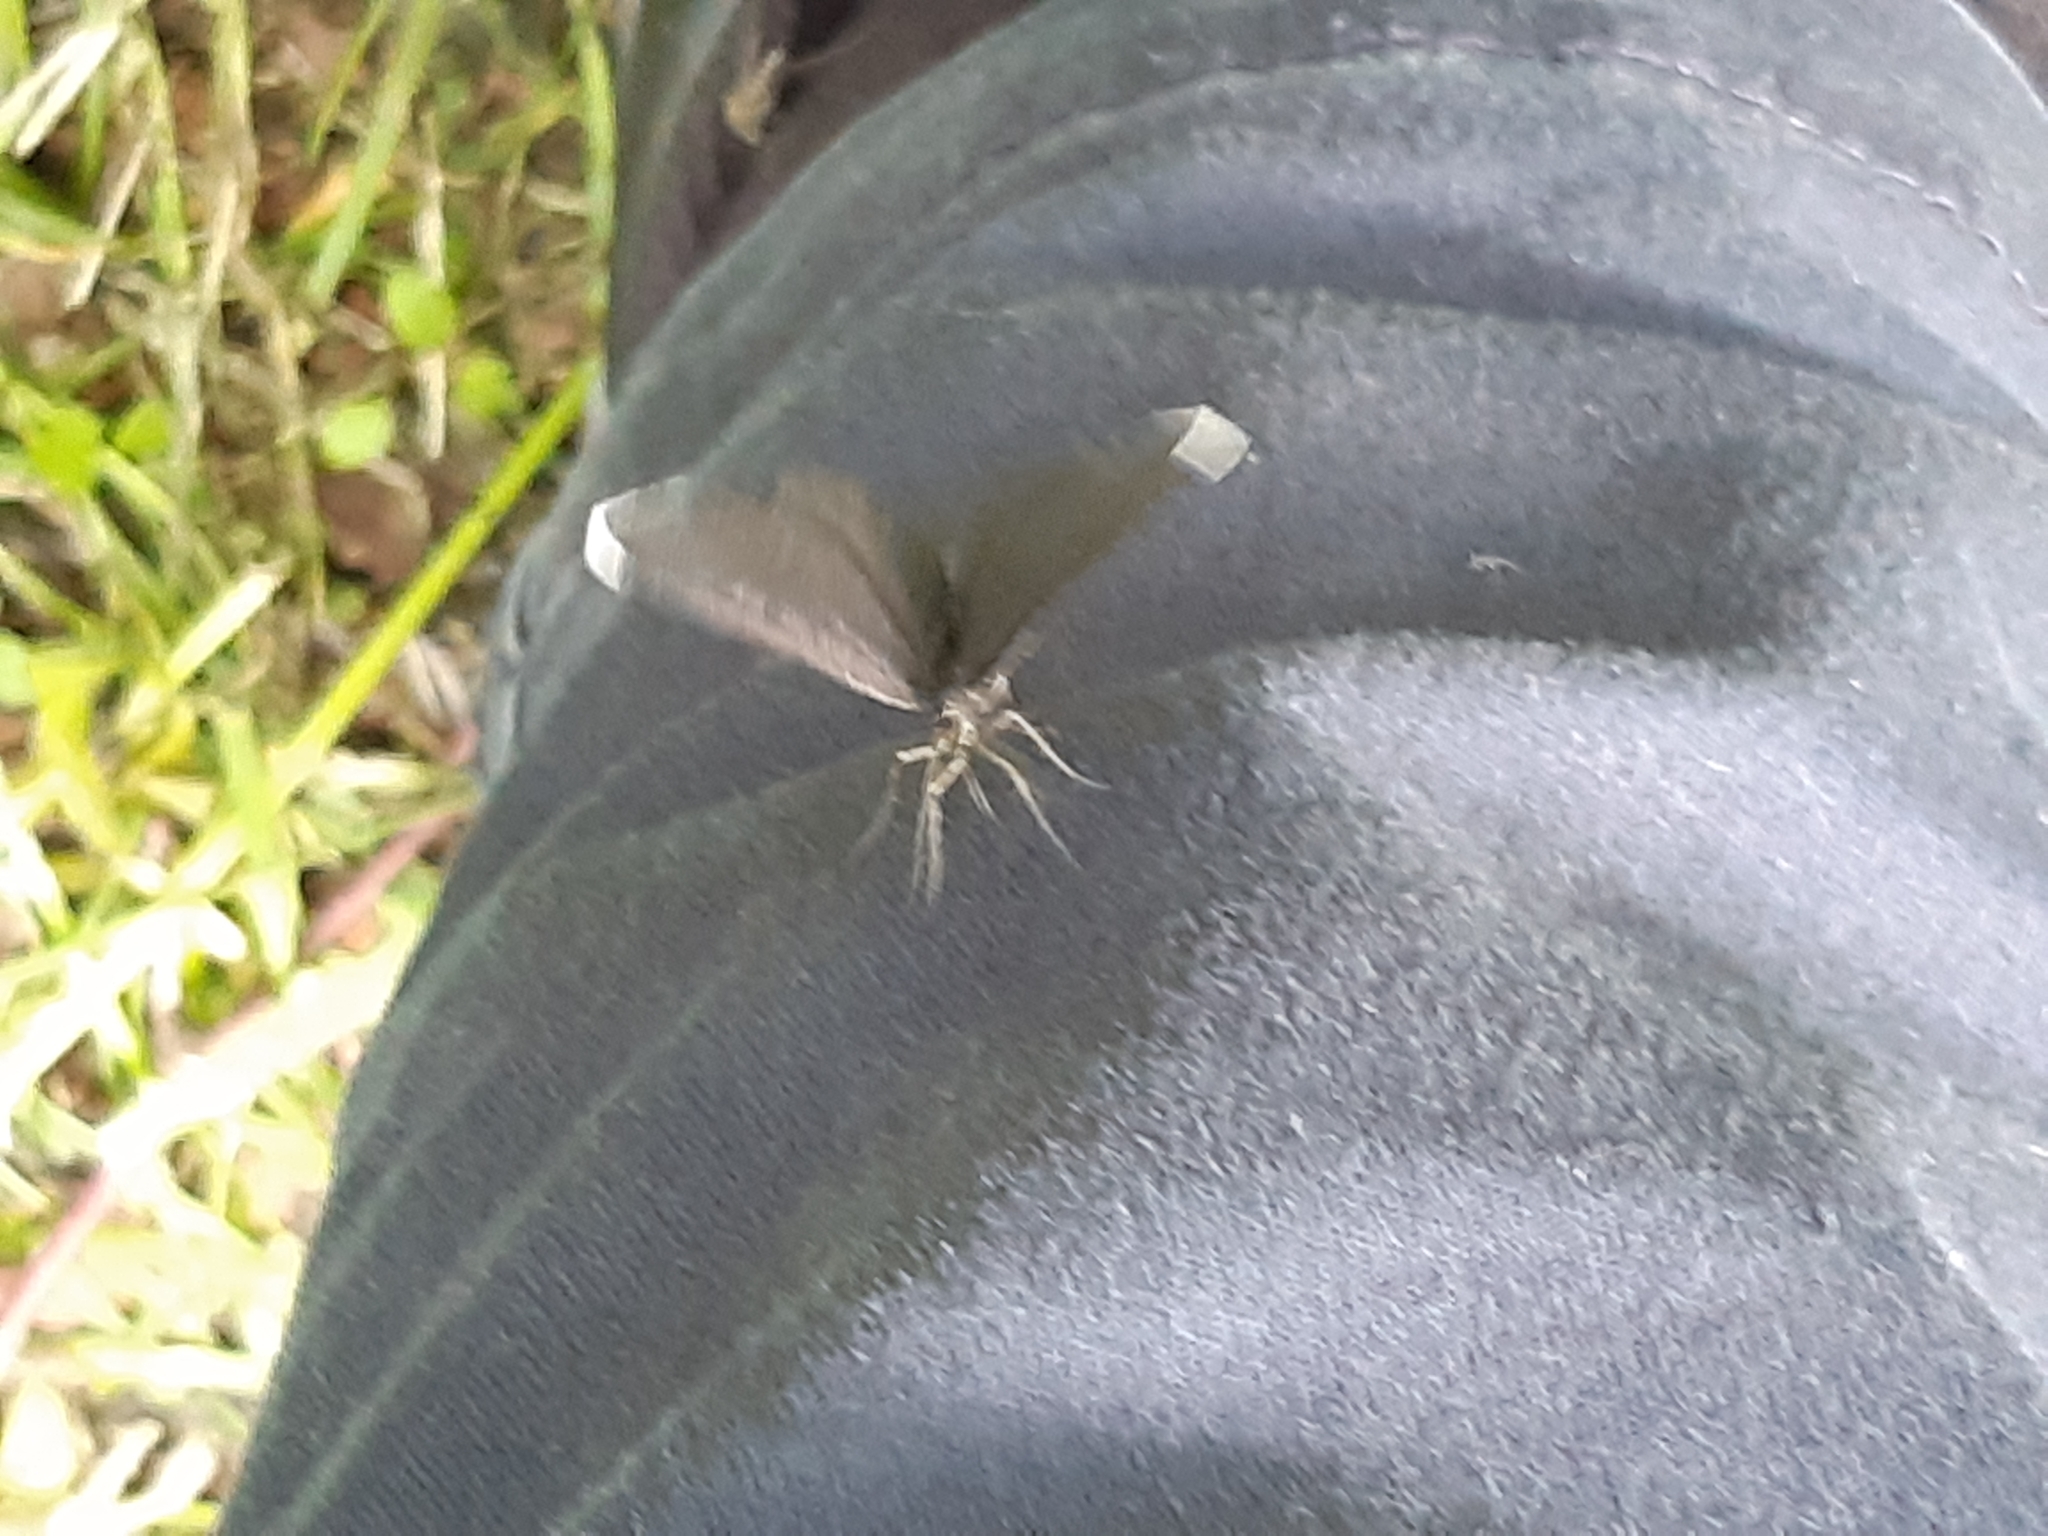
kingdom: Animalia
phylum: Arthropoda
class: Insecta
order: Lepidoptera
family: Geometridae
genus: Odezia
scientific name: Odezia atrata
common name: Chimney sweeper
